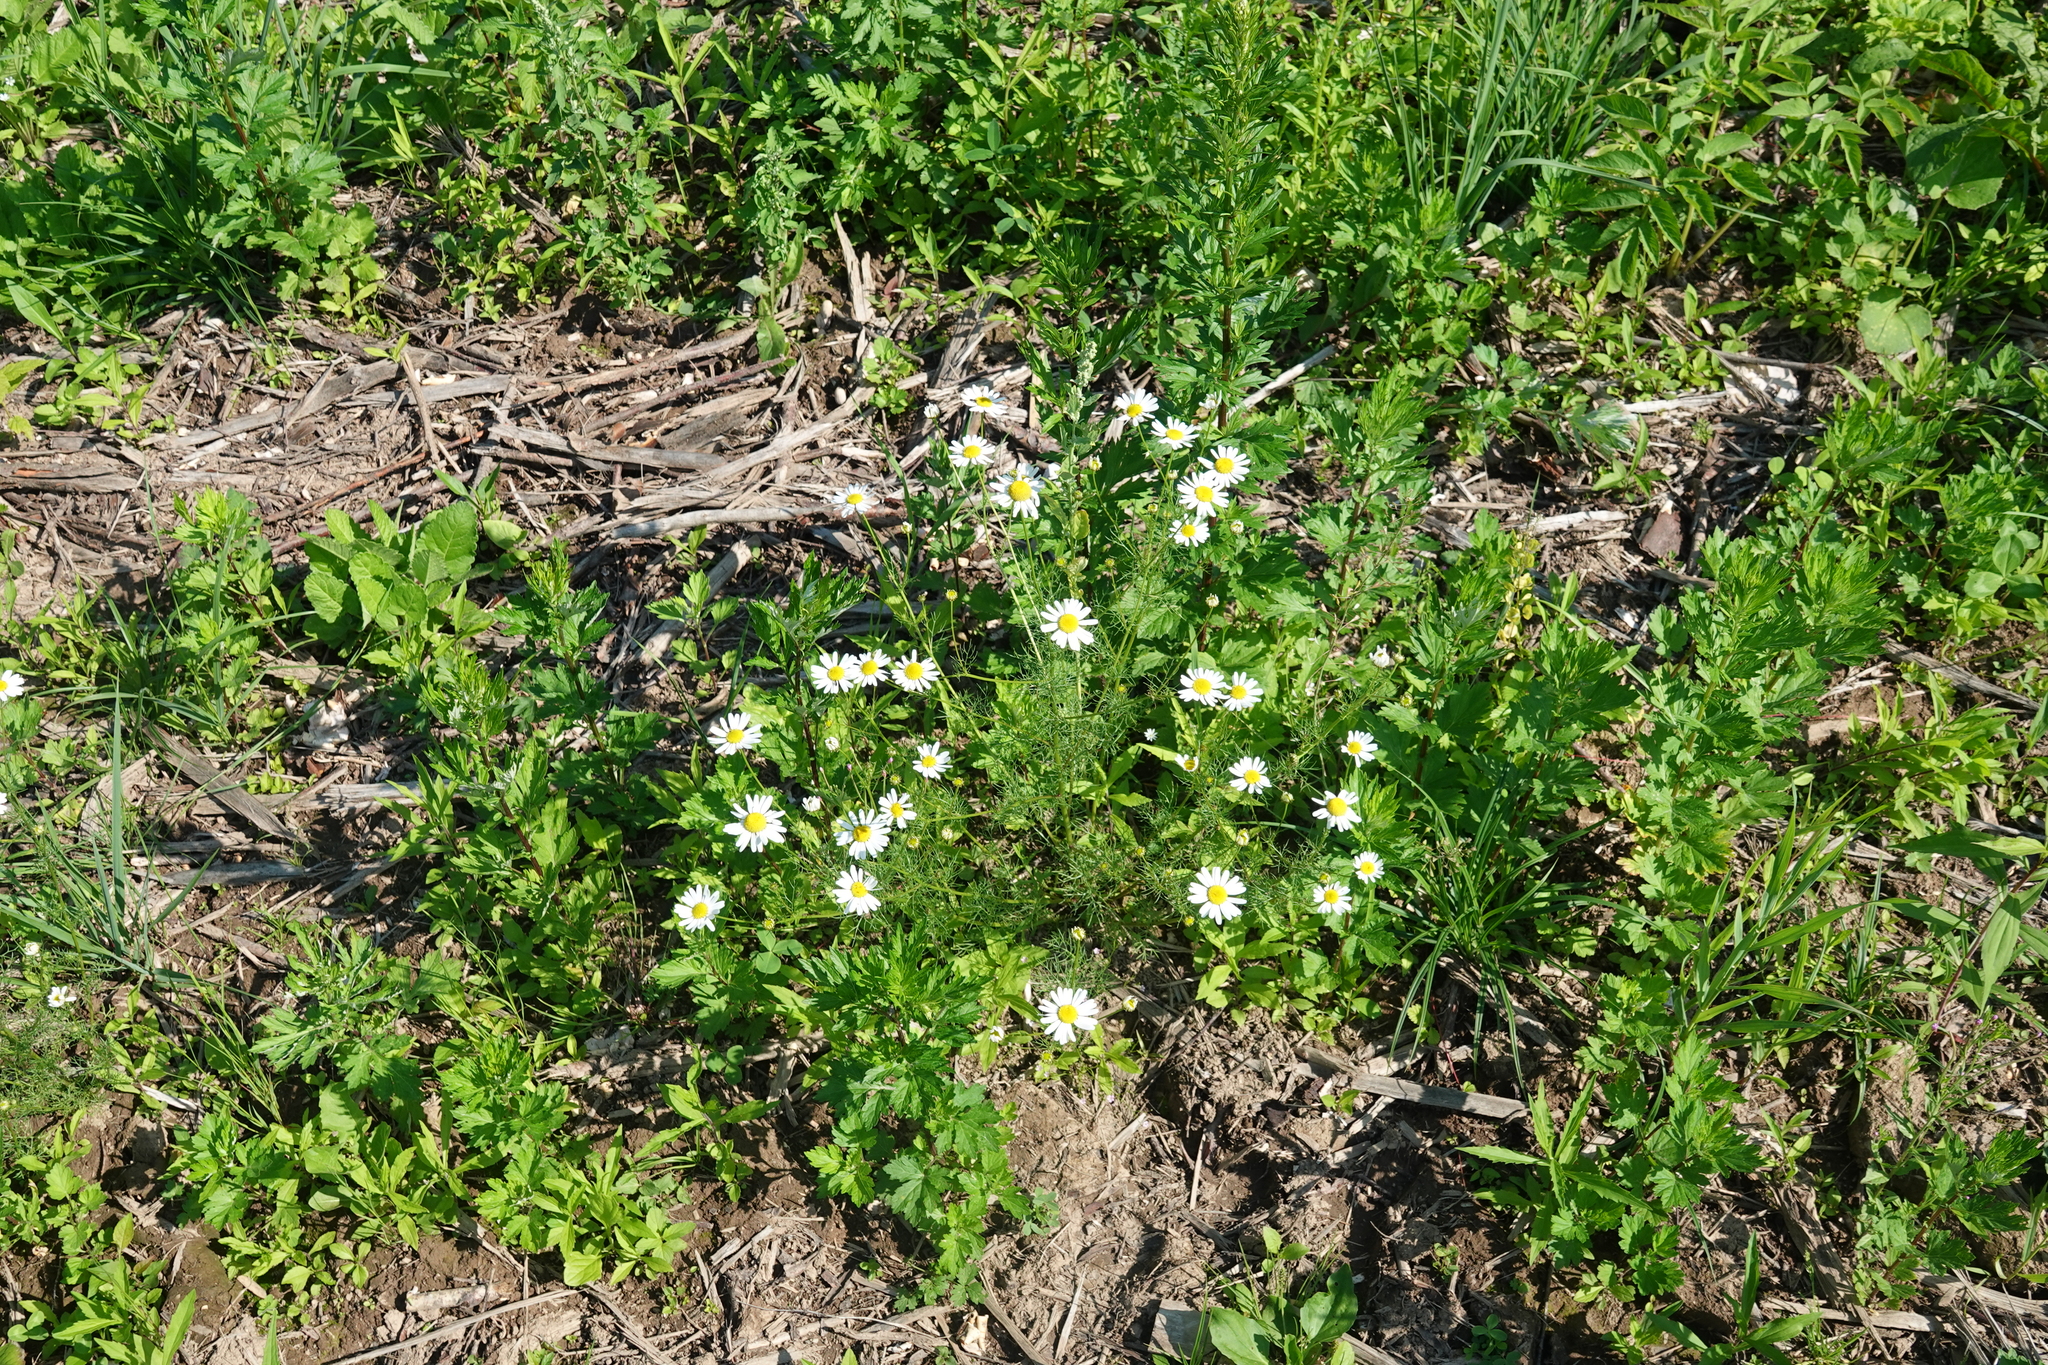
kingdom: Plantae
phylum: Tracheophyta
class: Magnoliopsida
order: Asterales
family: Asteraceae
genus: Tripleurospermum
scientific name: Tripleurospermum inodorum
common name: Scentless mayweed
